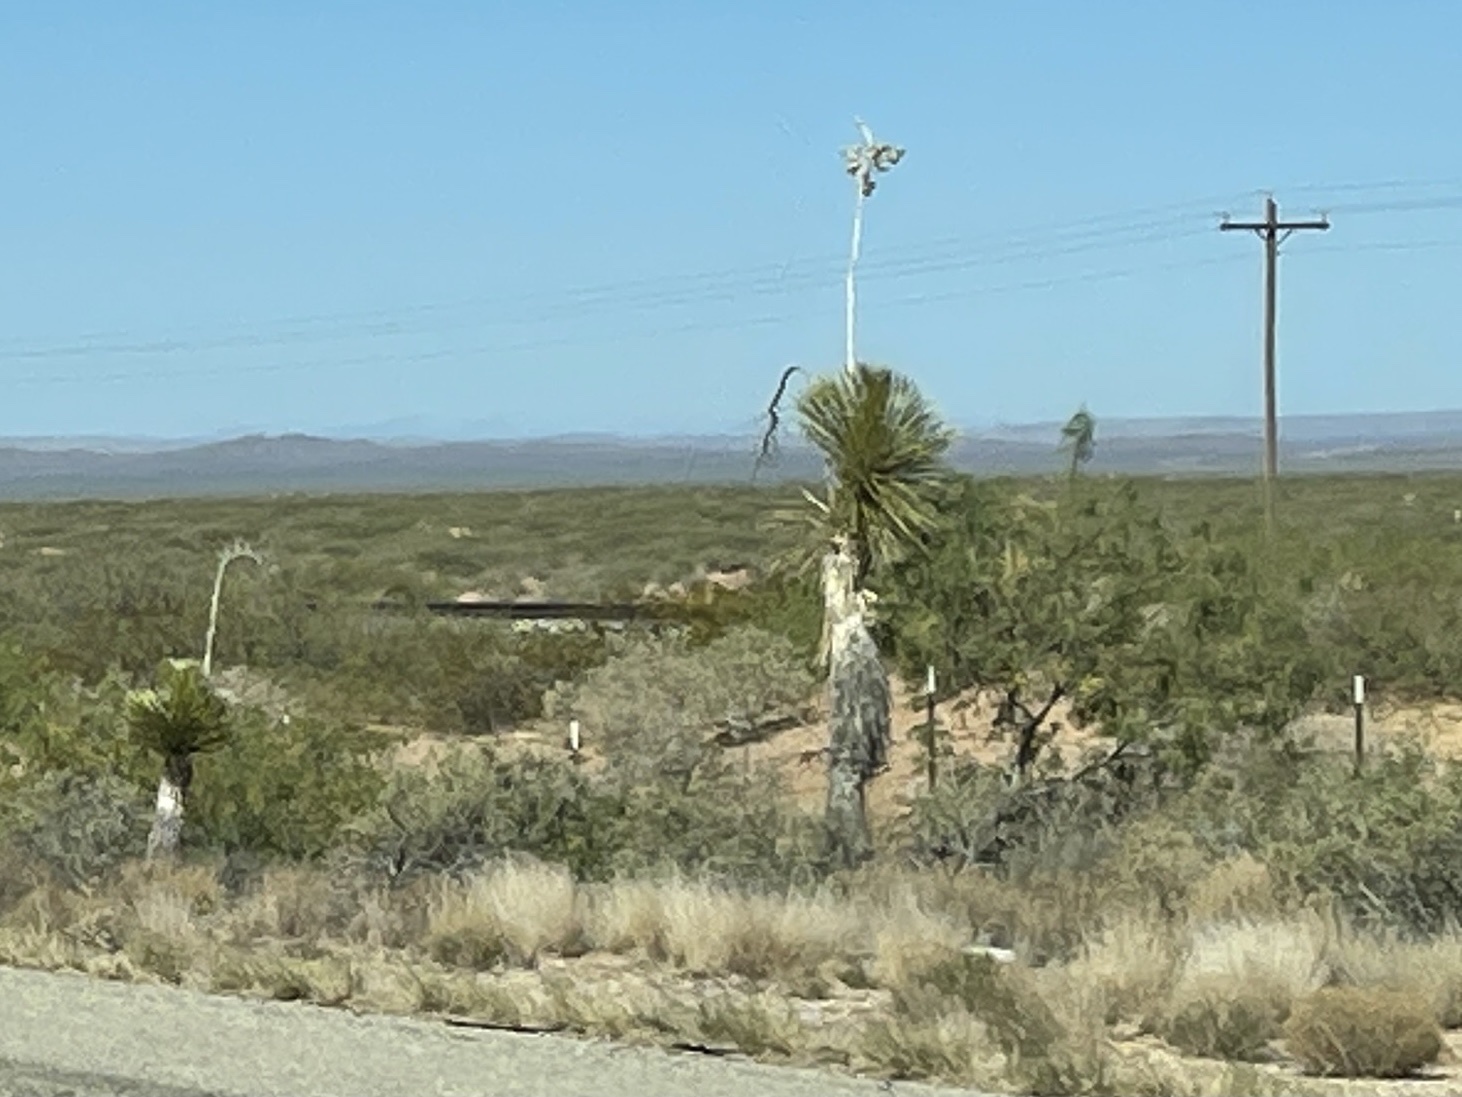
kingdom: Plantae
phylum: Tracheophyta
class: Liliopsida
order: Asparagales
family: Asparagaceae
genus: Yucca
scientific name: Yucca elata
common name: Palmella
